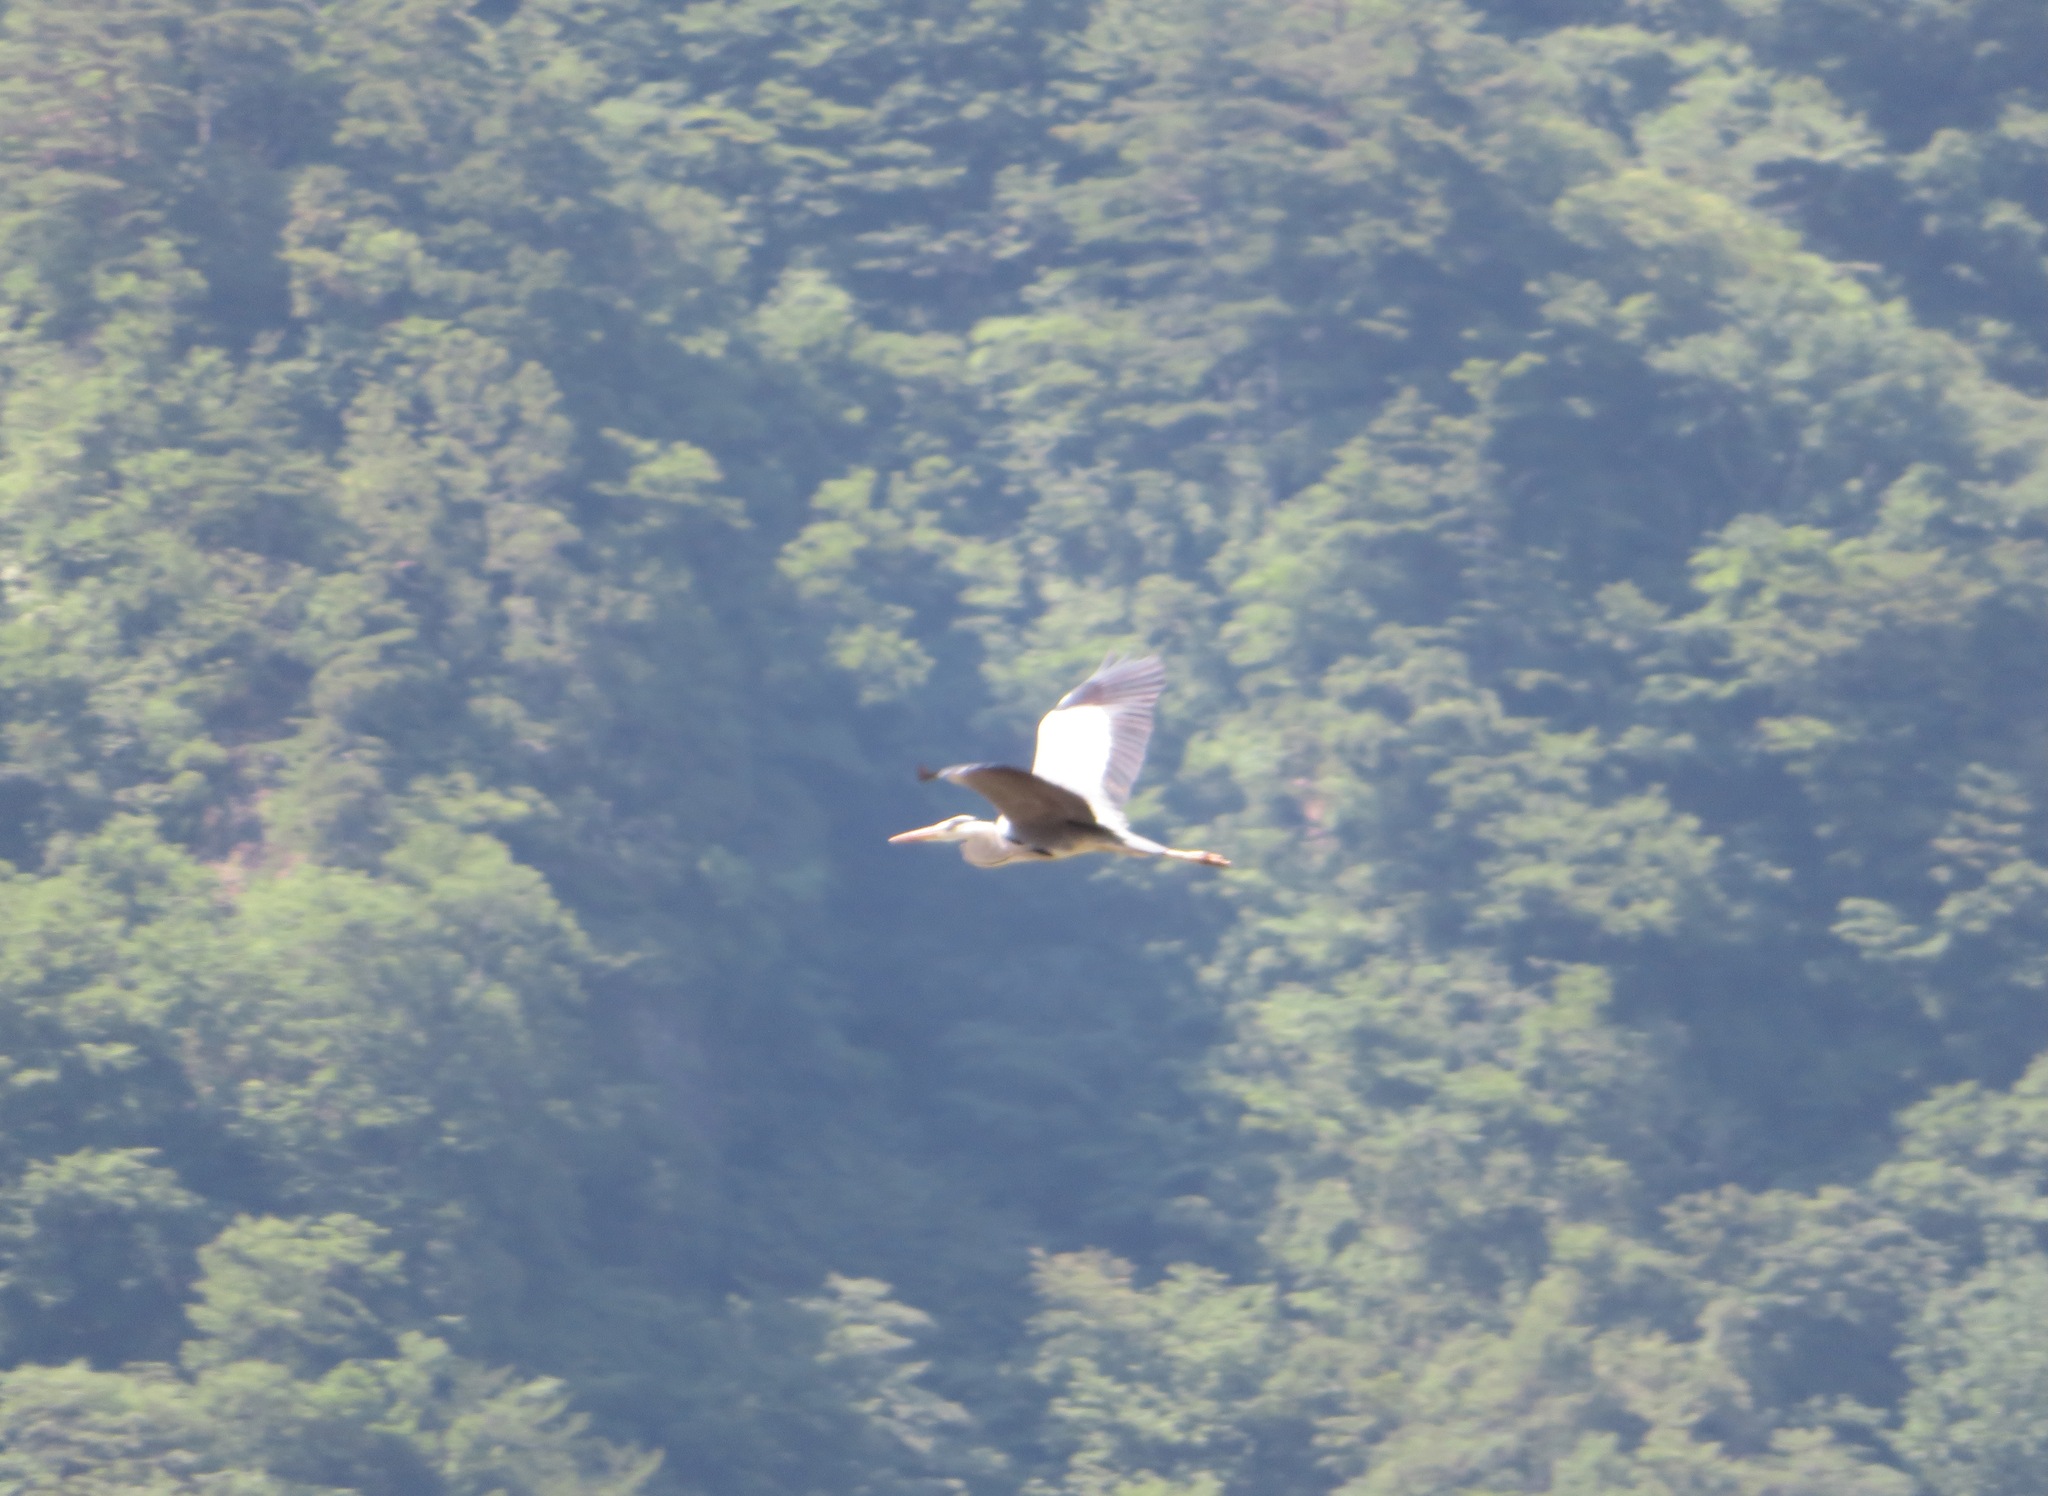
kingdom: Animalia
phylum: Chordata
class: Aves
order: Pelecaniformes
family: Ardeidae
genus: Ardea
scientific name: Ardea cinerea
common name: Grey heron
